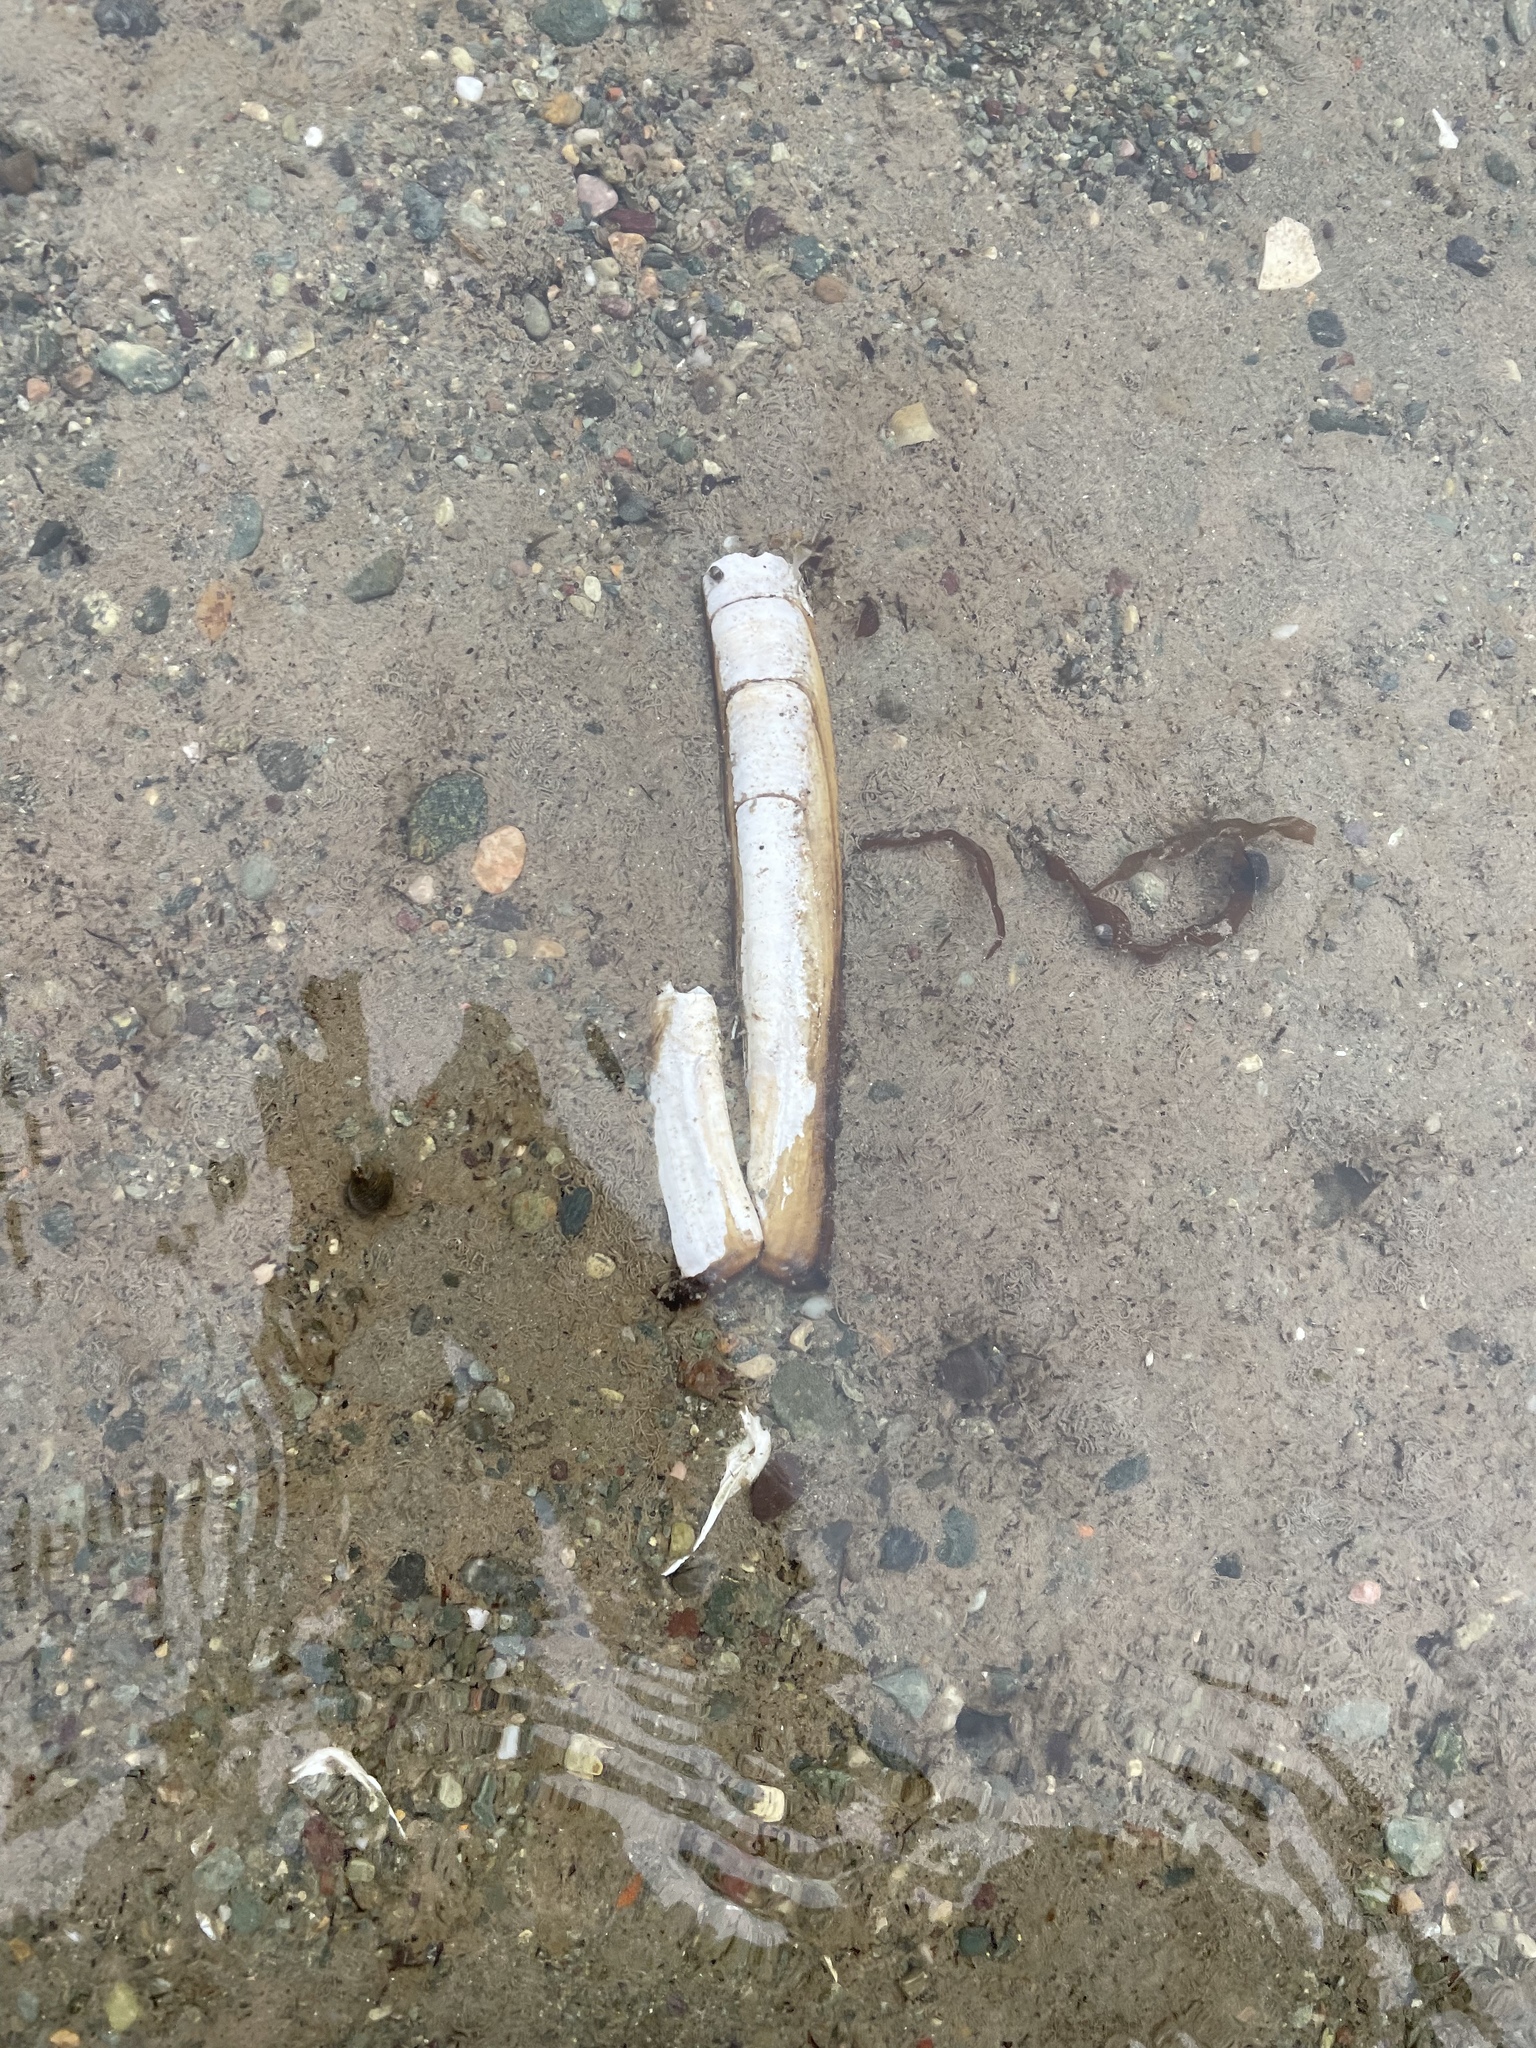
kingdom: Animalia
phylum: Mollusca
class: Bivalvia
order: Adapedonta
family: Pharidae
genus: Ensis
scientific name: Ensis leei
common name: American jack knife clam
